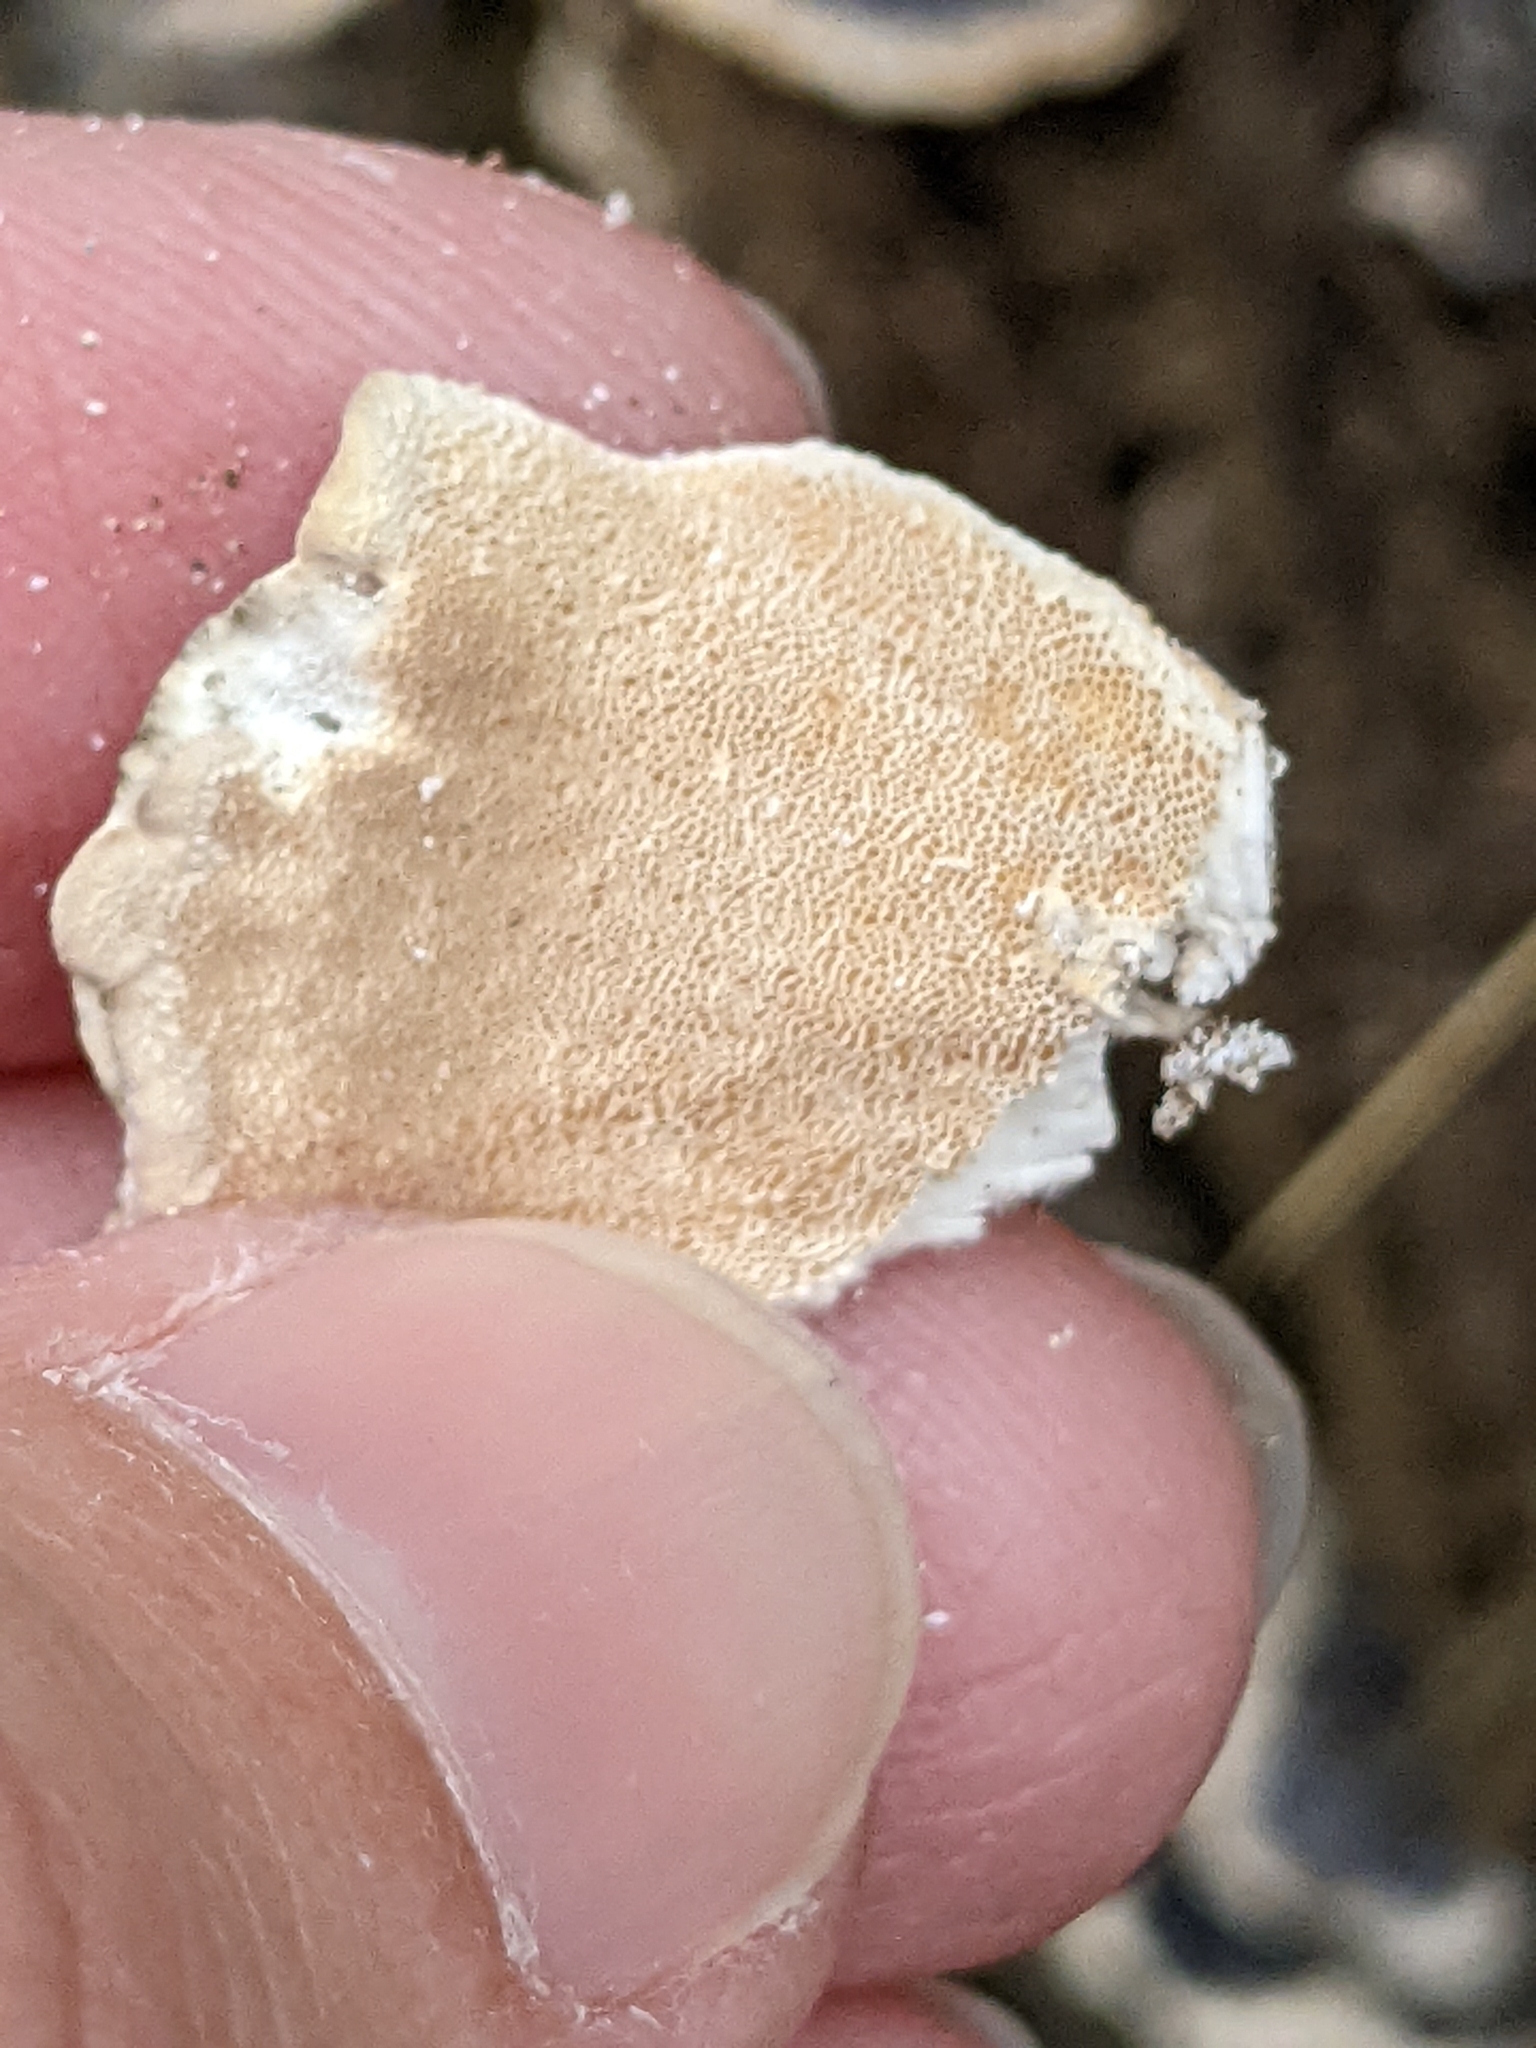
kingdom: Fungi
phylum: Basidiomycota
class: Agaricomycetes
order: Polyporales
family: Polyporaceae
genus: Trametes
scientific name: Trametes versicolor
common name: Turkeytail
